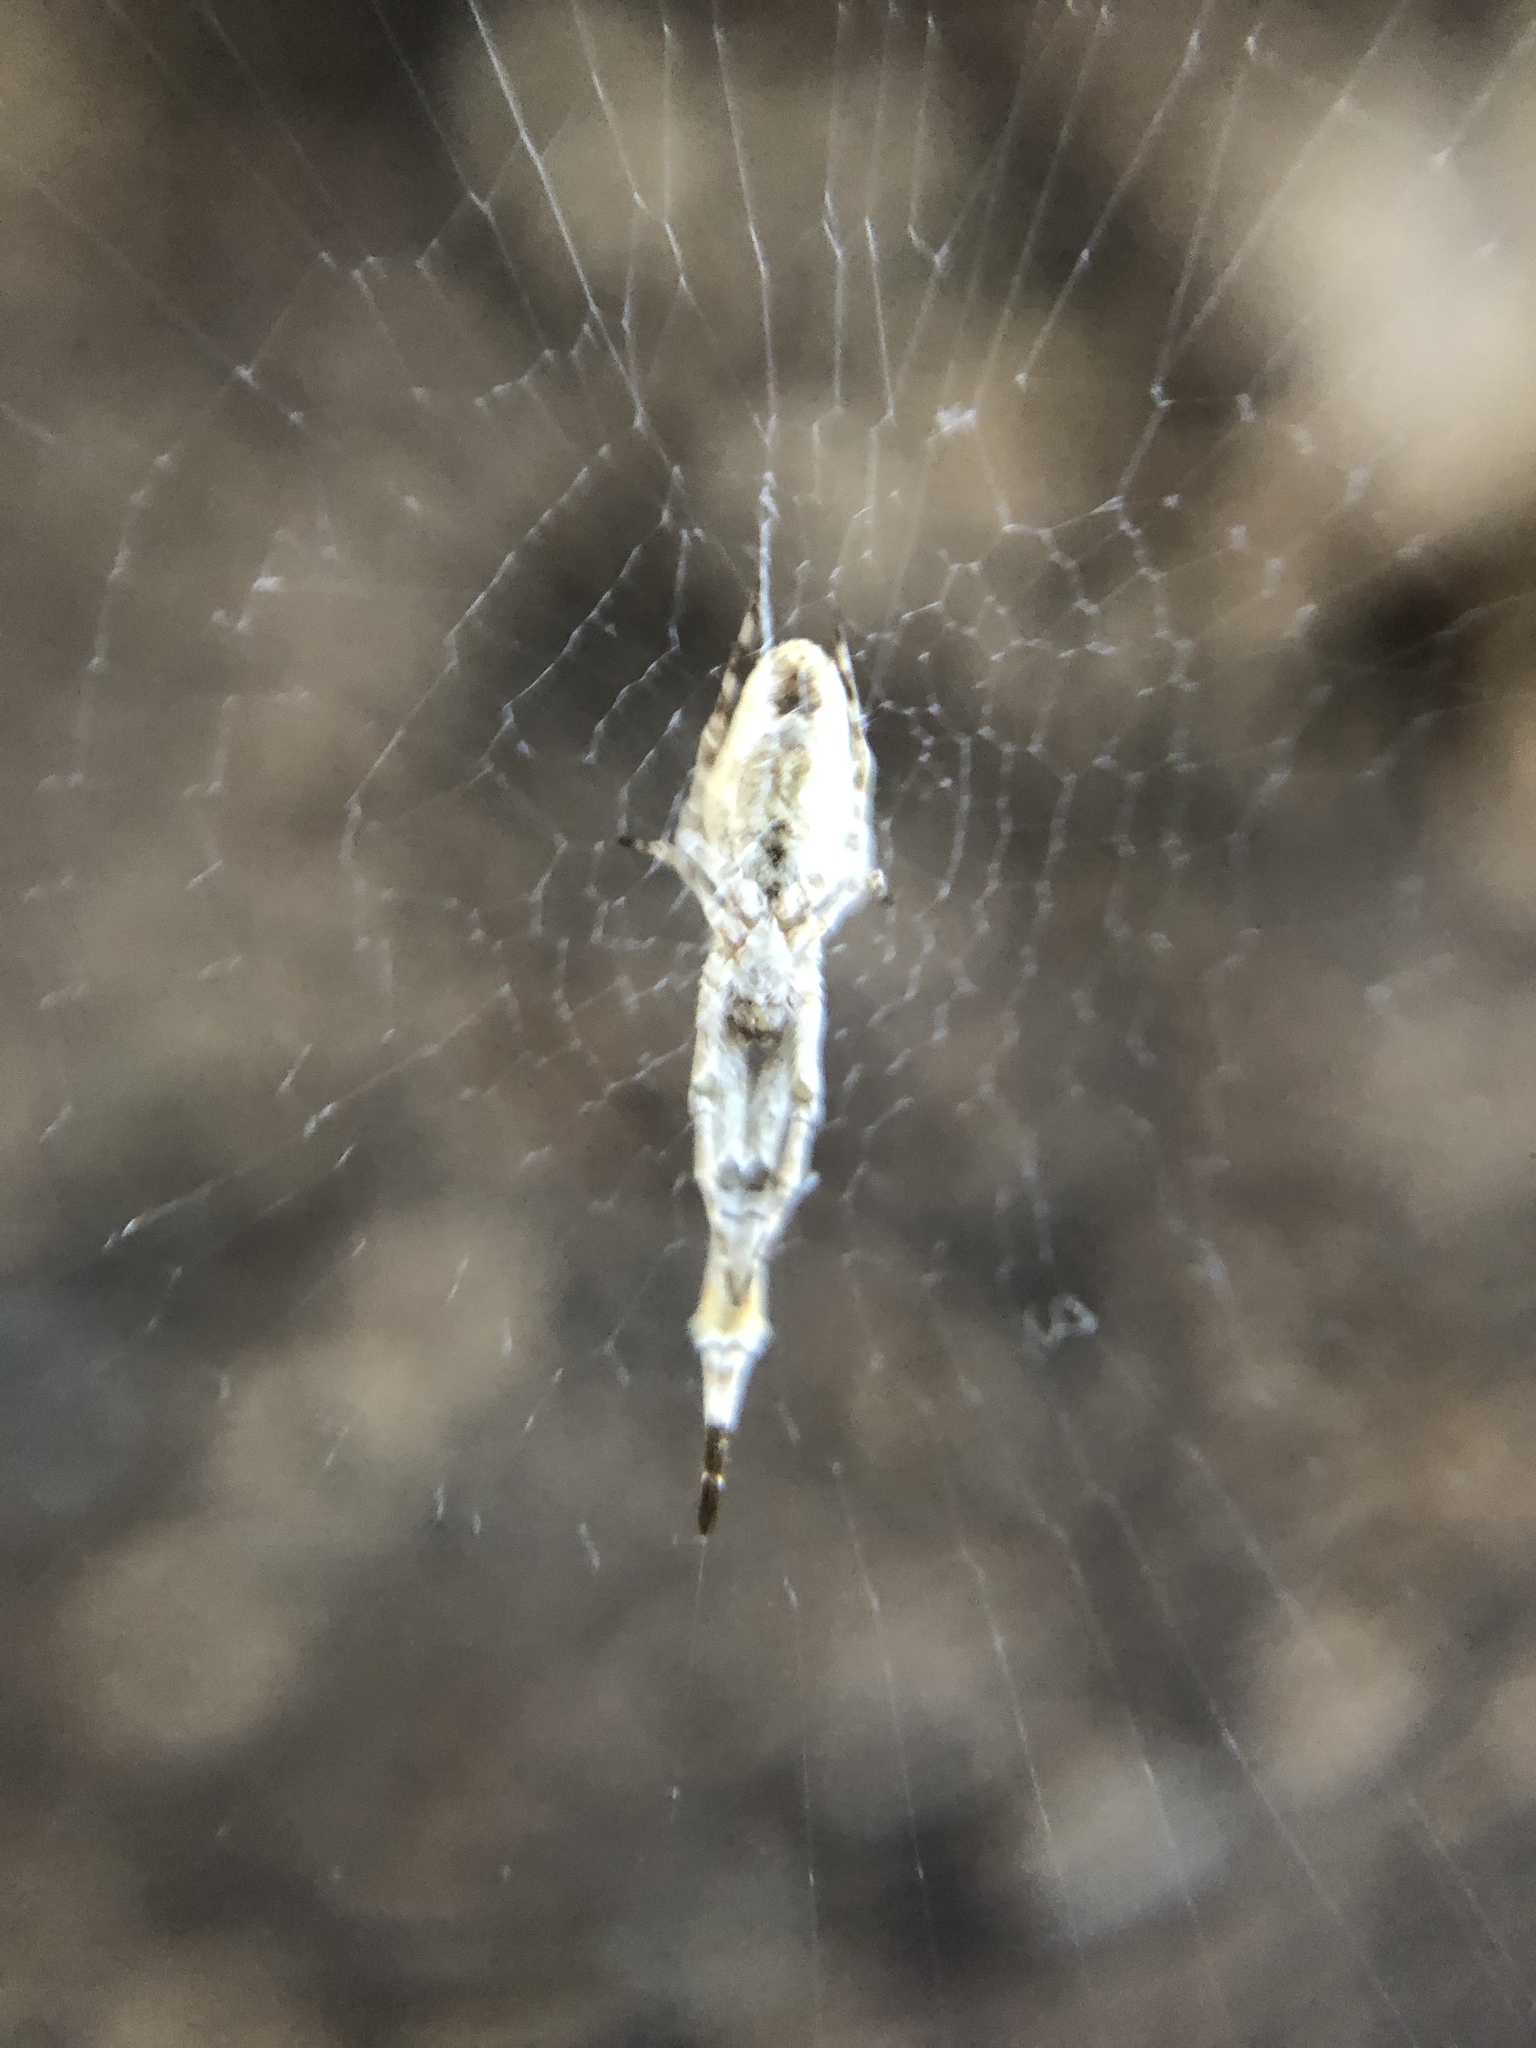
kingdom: Animalia
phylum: Arthropoda
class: Arachnida
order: Araneae
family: Uloboridae
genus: Uloborus
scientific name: Uloborus diversus
